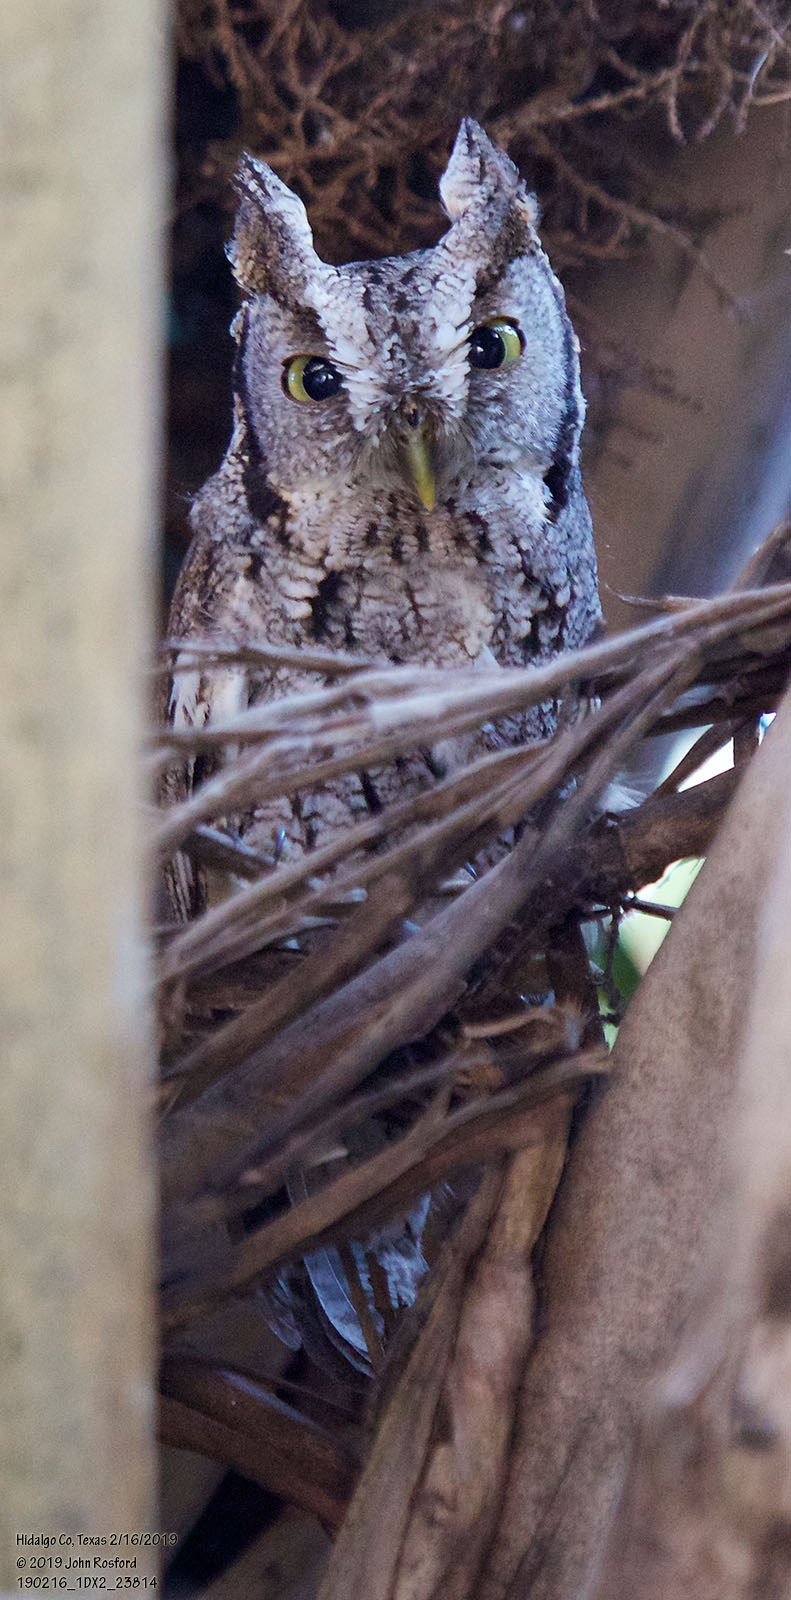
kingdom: Animalia
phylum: Chordata
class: Aves
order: Strigiformes
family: Strigidae
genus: Megascops
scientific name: Megascops asio
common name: Eastern screech-owl
